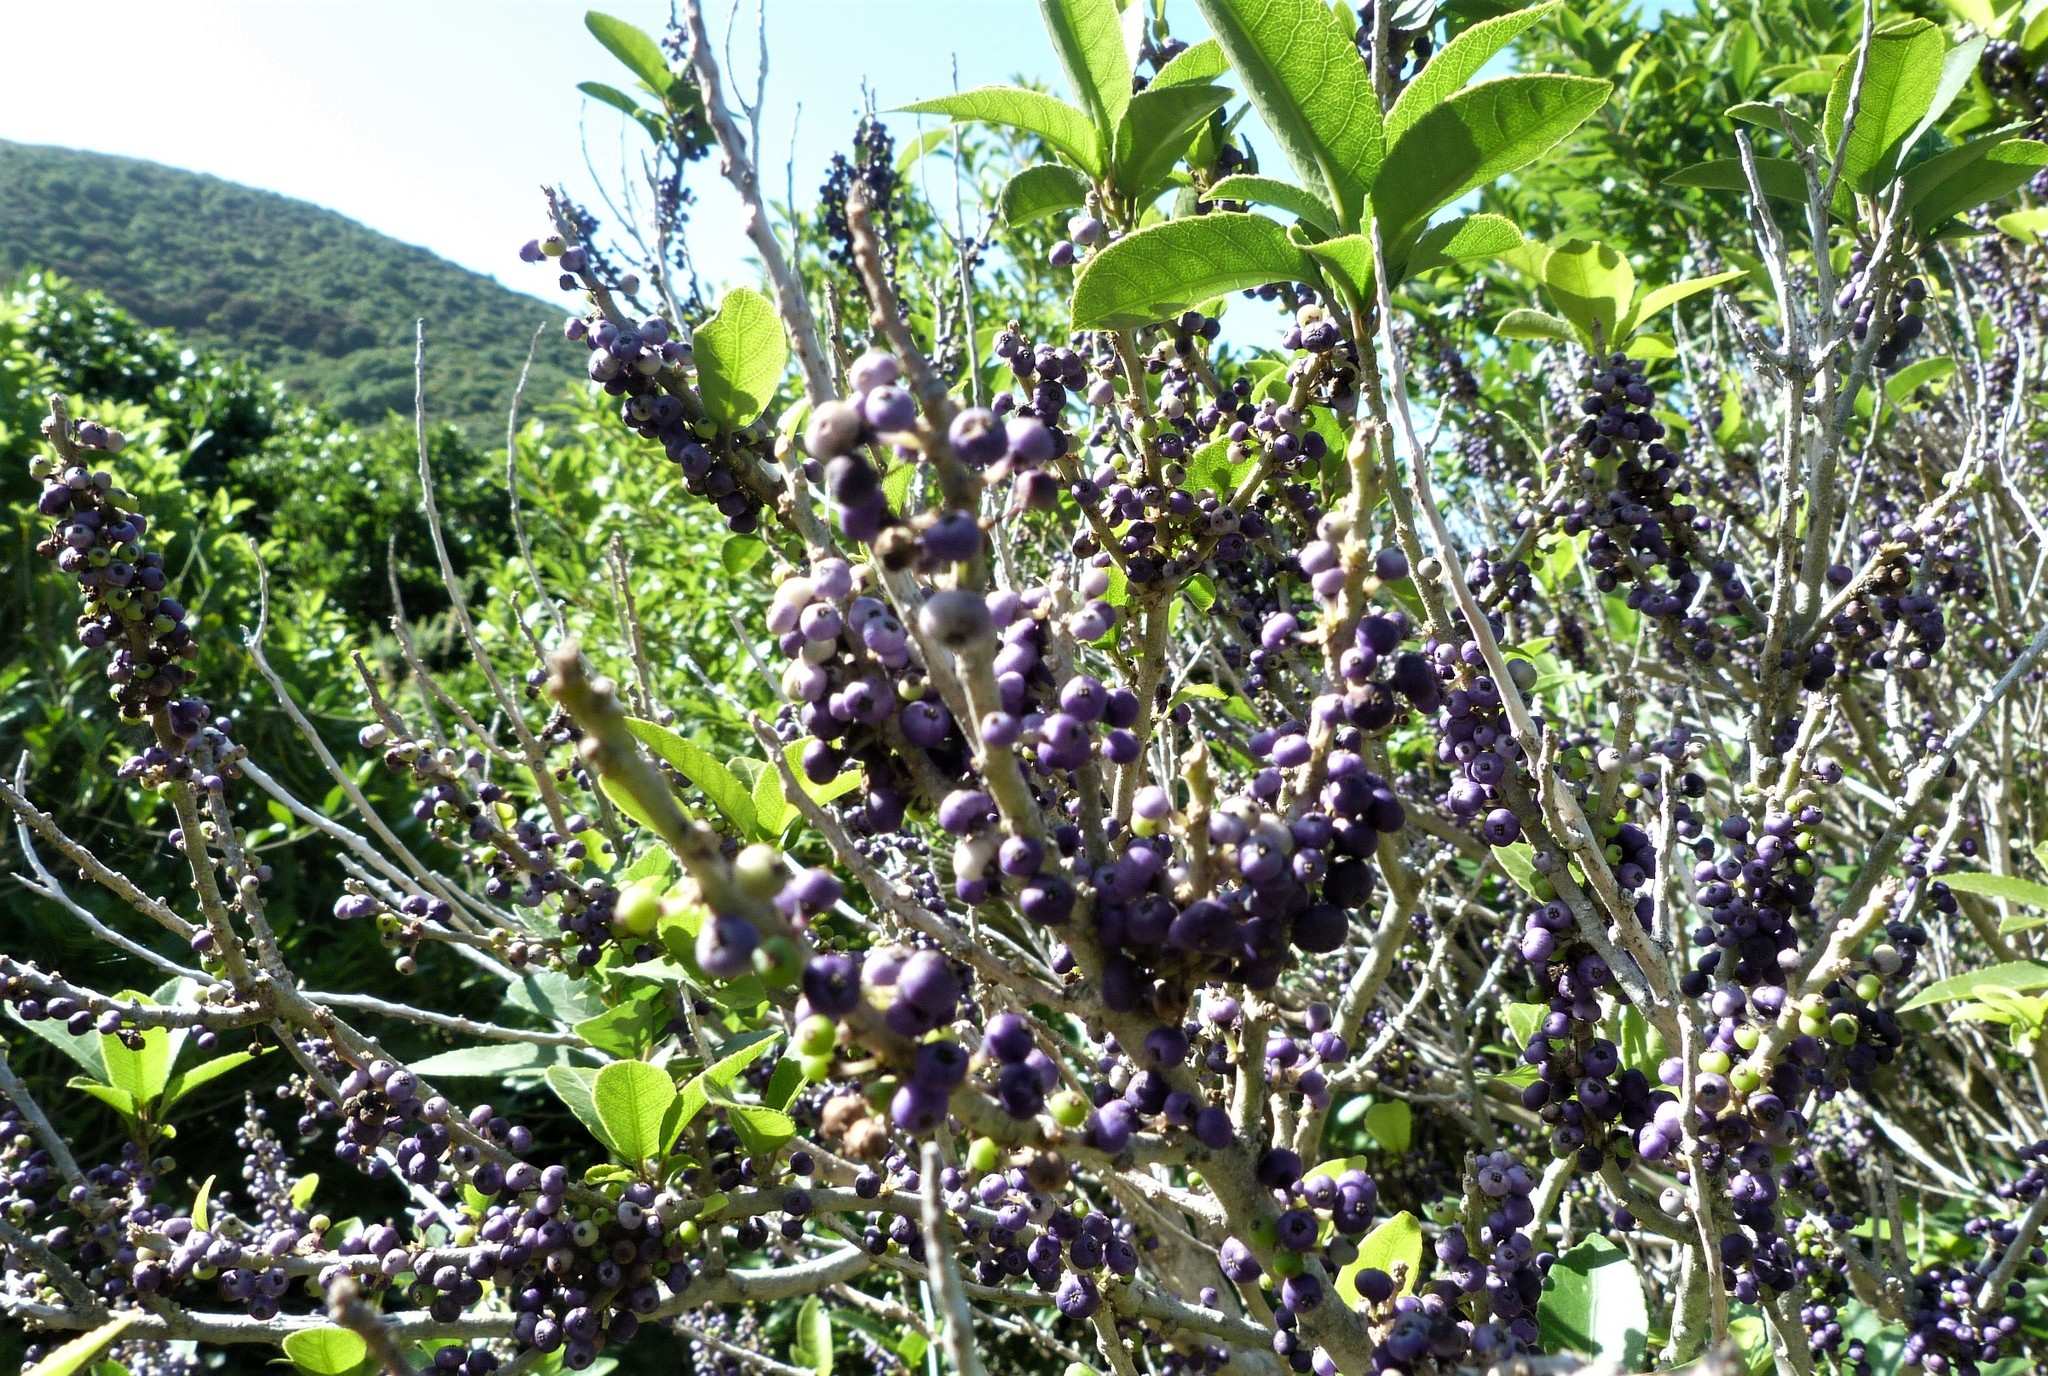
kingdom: Plantae
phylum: Tracheophyta
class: Magnoliopsida
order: Malpighiales
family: Violaceae
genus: Melicytus
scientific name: Melicytus ramiflorus
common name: Mahoe
